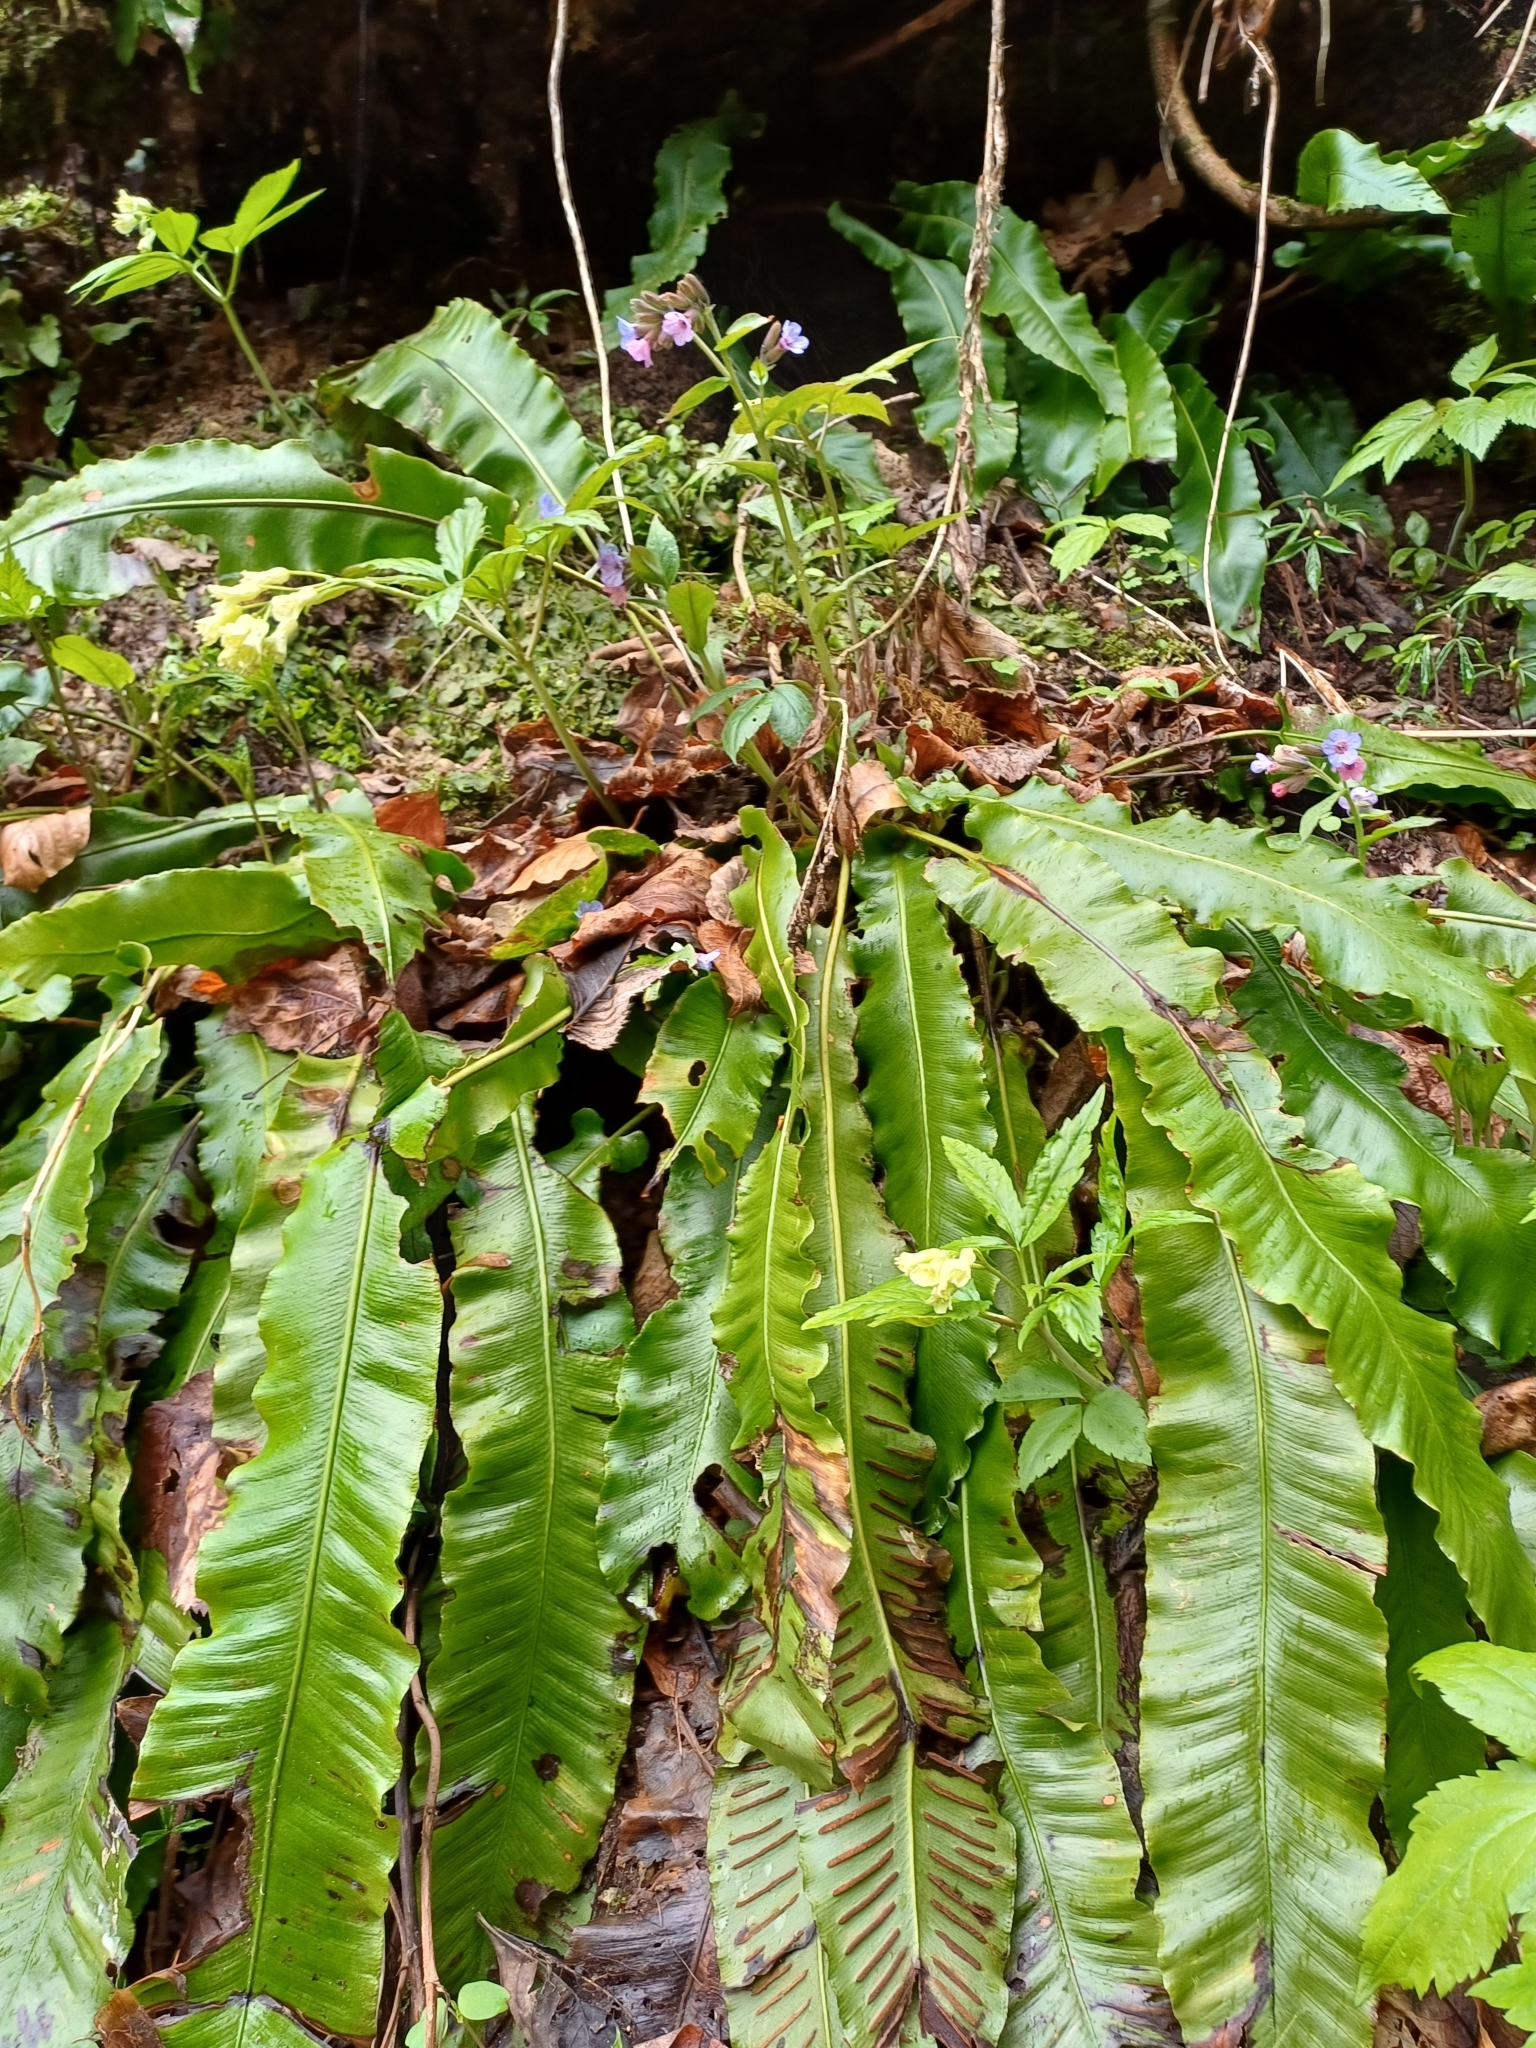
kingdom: Plantae
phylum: Tracheophyta
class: Polypodiopsida
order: Polypodiales
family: Aspleniaceae
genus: Asplenium
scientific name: Asplenium scolopendrium
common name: Hart's-tongue fern
